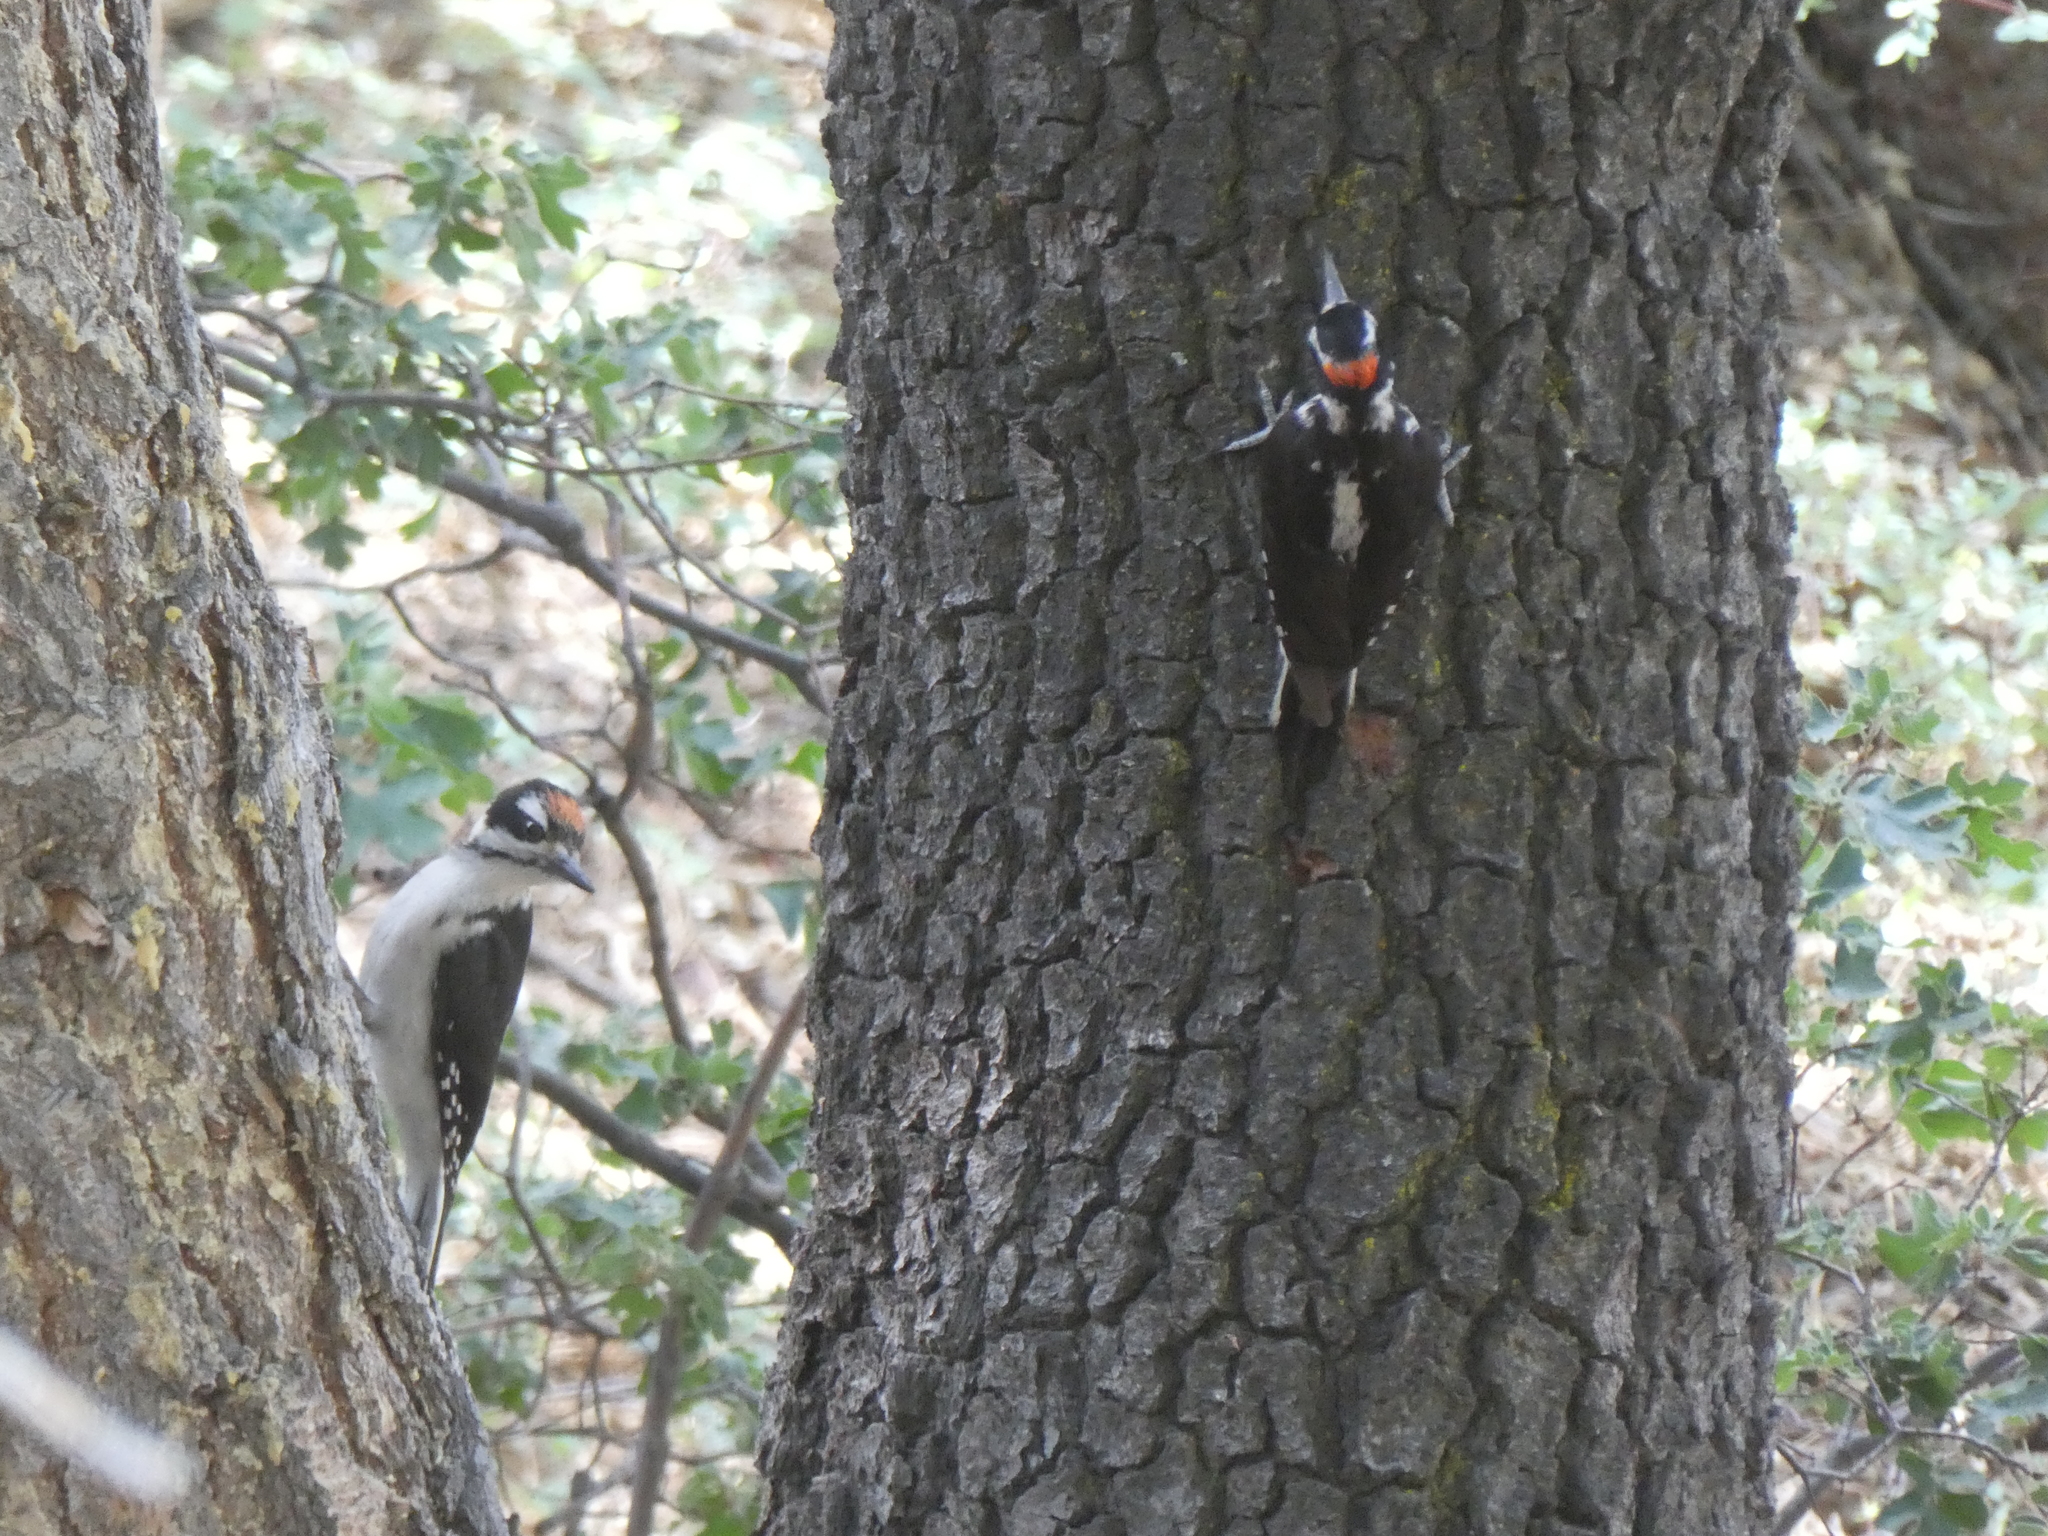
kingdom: Animalia
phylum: Chordata
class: Aves
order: Piciformes
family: Picidae
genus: Leuconotopicus
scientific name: Leuconotopicus villosus
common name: Hairy woodpecker
